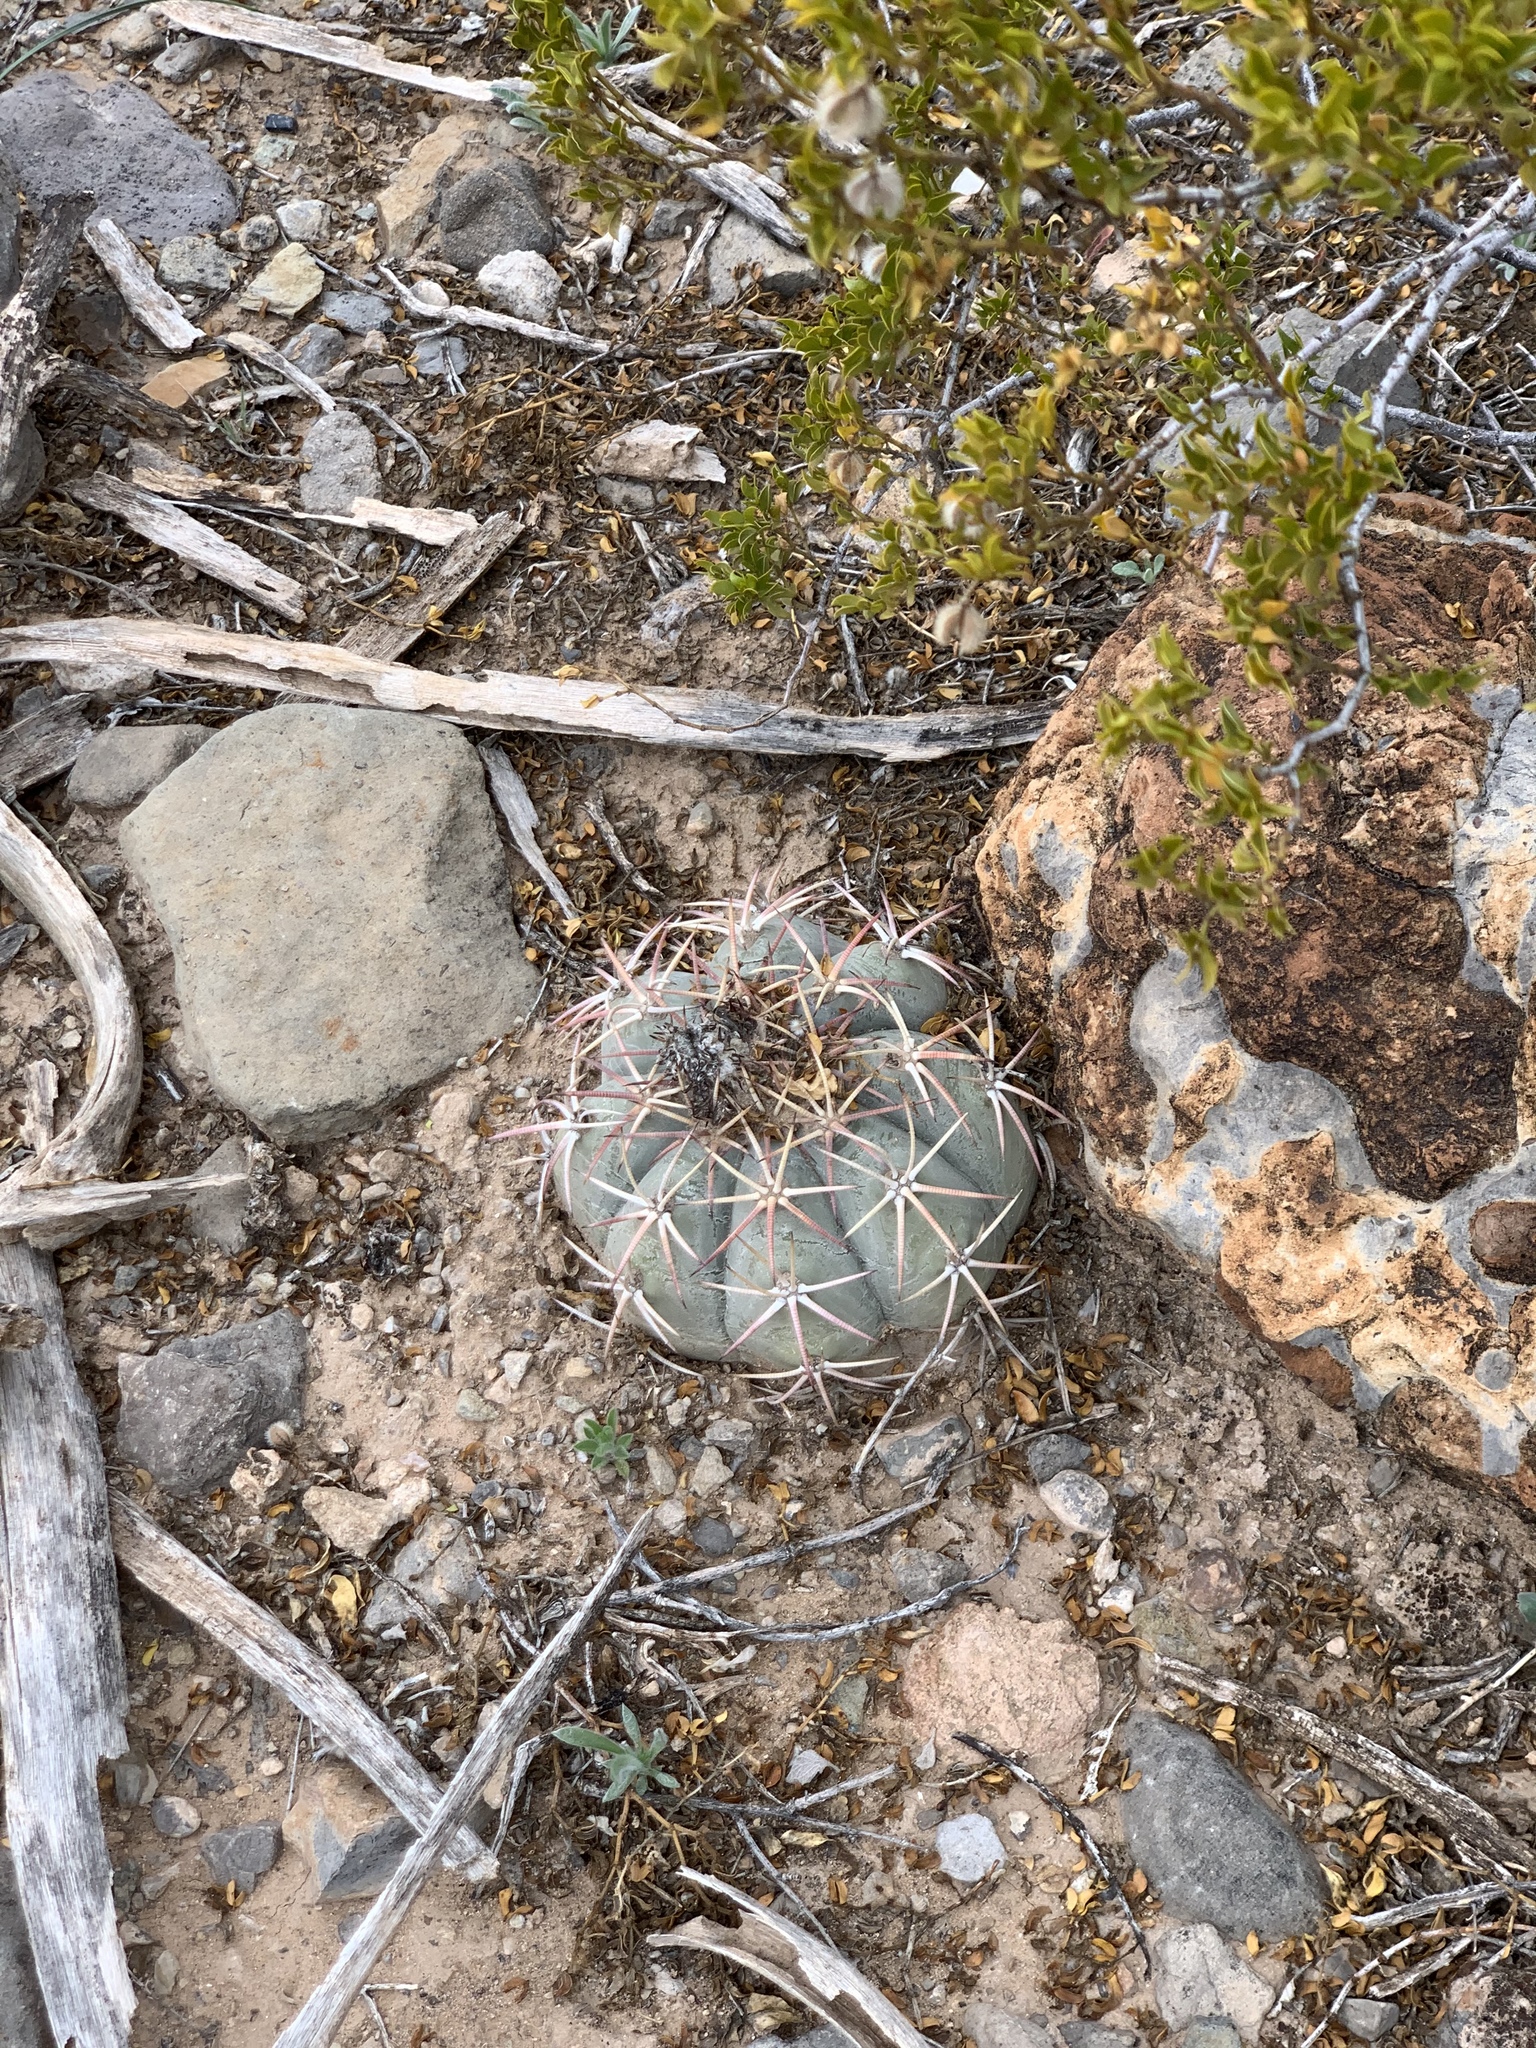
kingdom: Plantae
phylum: Tracheophyta
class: Magnoliopsida
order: Caryophyllales
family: Cactaceae
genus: Echinocactus
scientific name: Echinocactus horizonthalonius
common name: Devilshead
